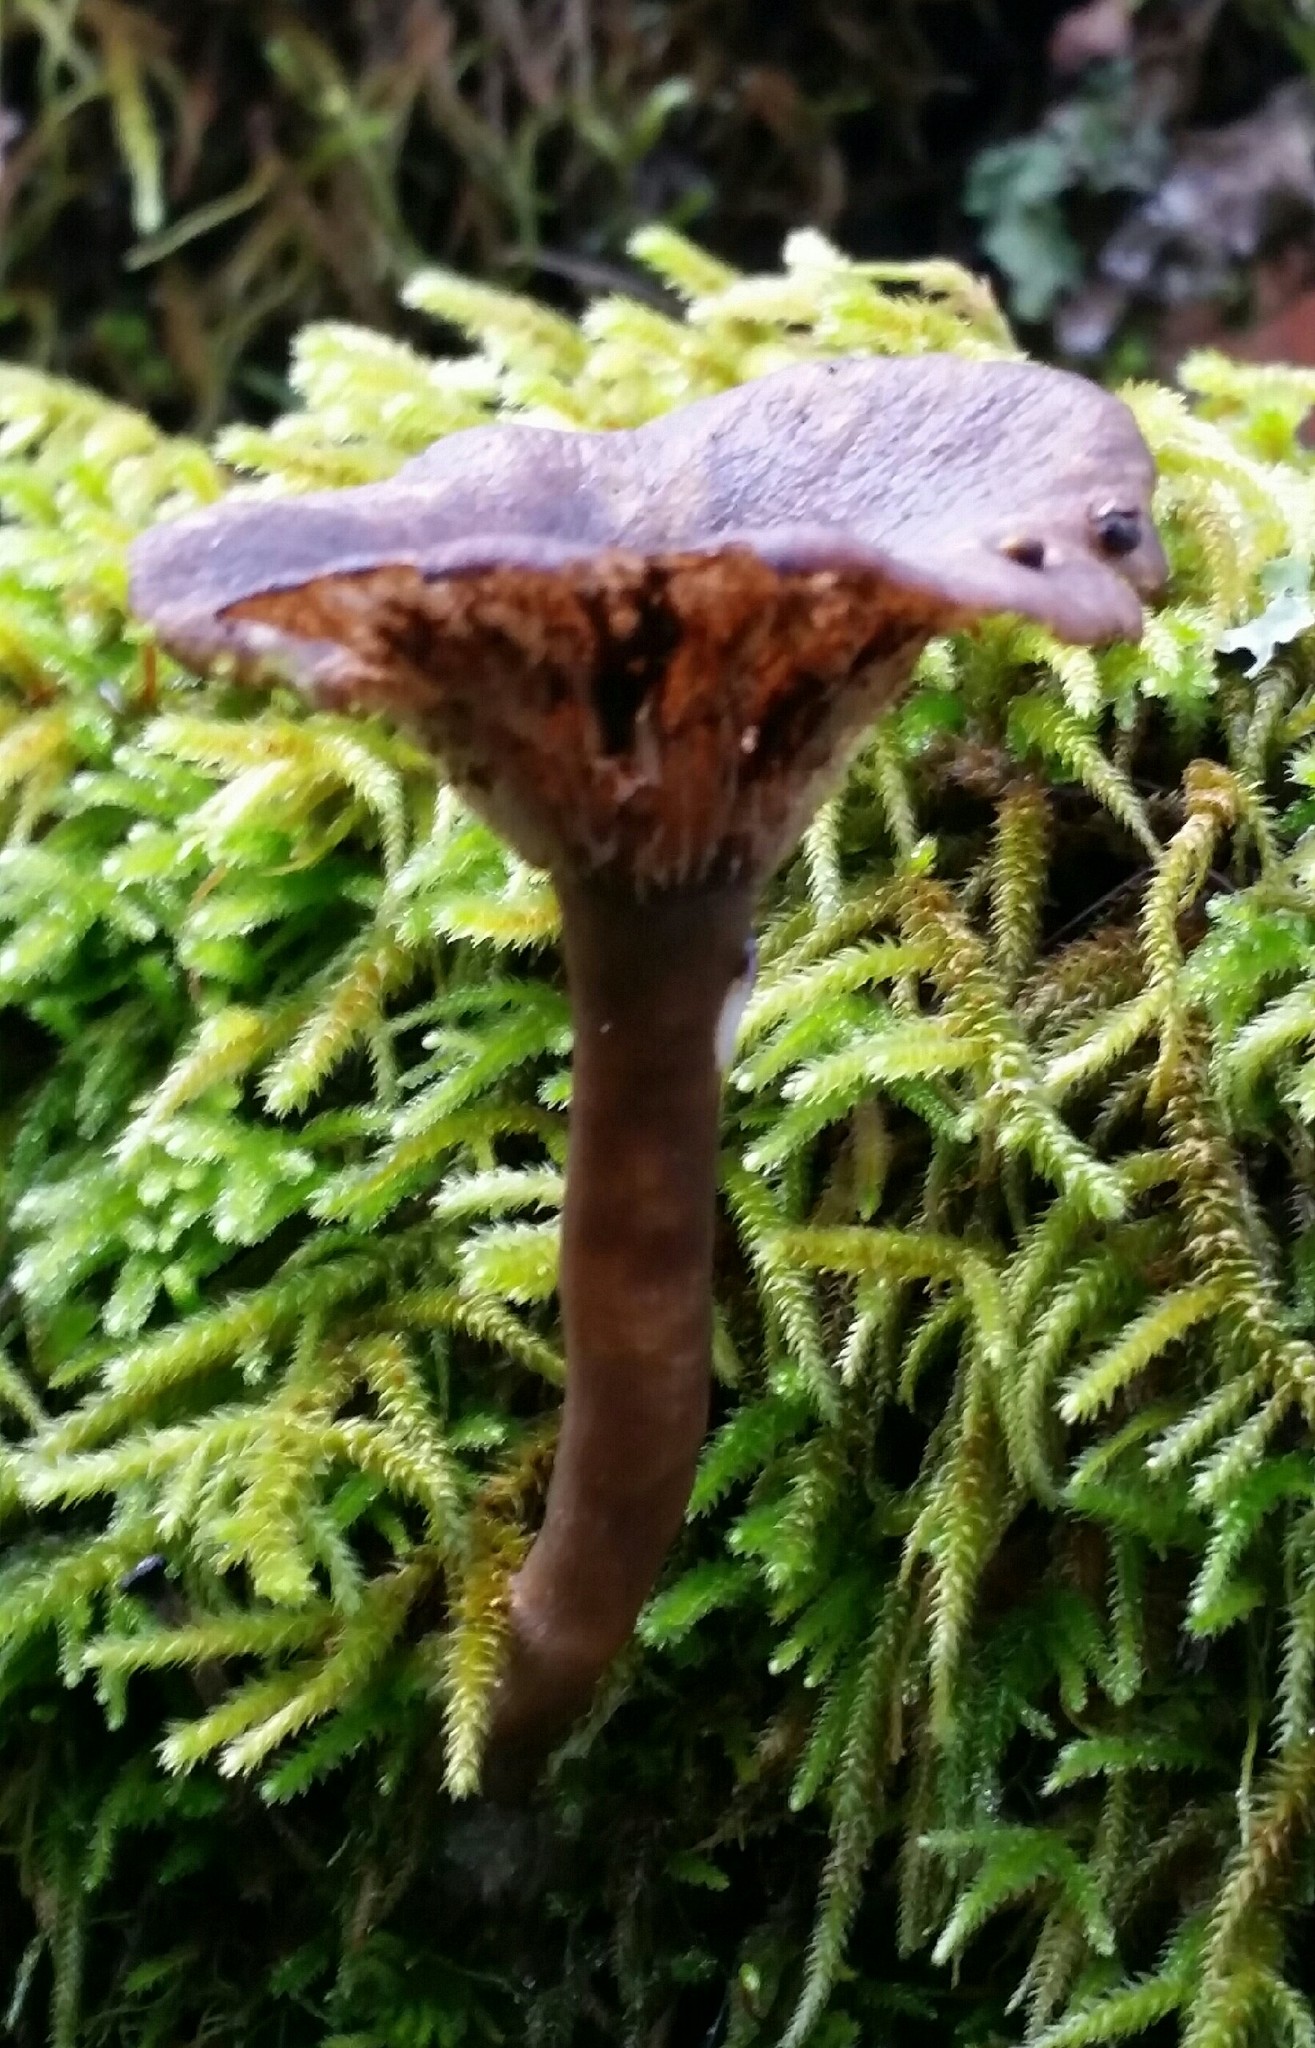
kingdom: Fungi
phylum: Basidiomycota
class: Agaricomycetes
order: Agaricales
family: Pseudoclitocybaceae
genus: Pseudoclitocybe
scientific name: Pseudoclitocybe cyathiformis
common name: Goblet
